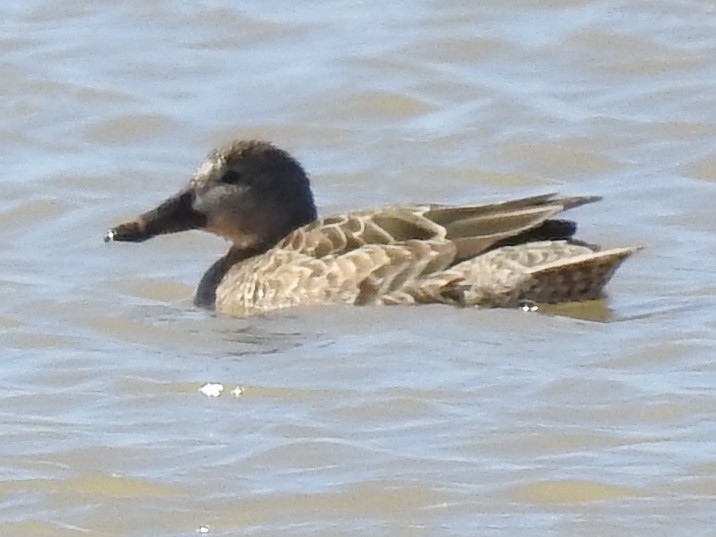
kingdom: Animalia
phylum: Chordata
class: Aves
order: Anseriformes
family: Anatidae
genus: Spatula
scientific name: Spatula cyanoptera
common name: Cinnamon teal
